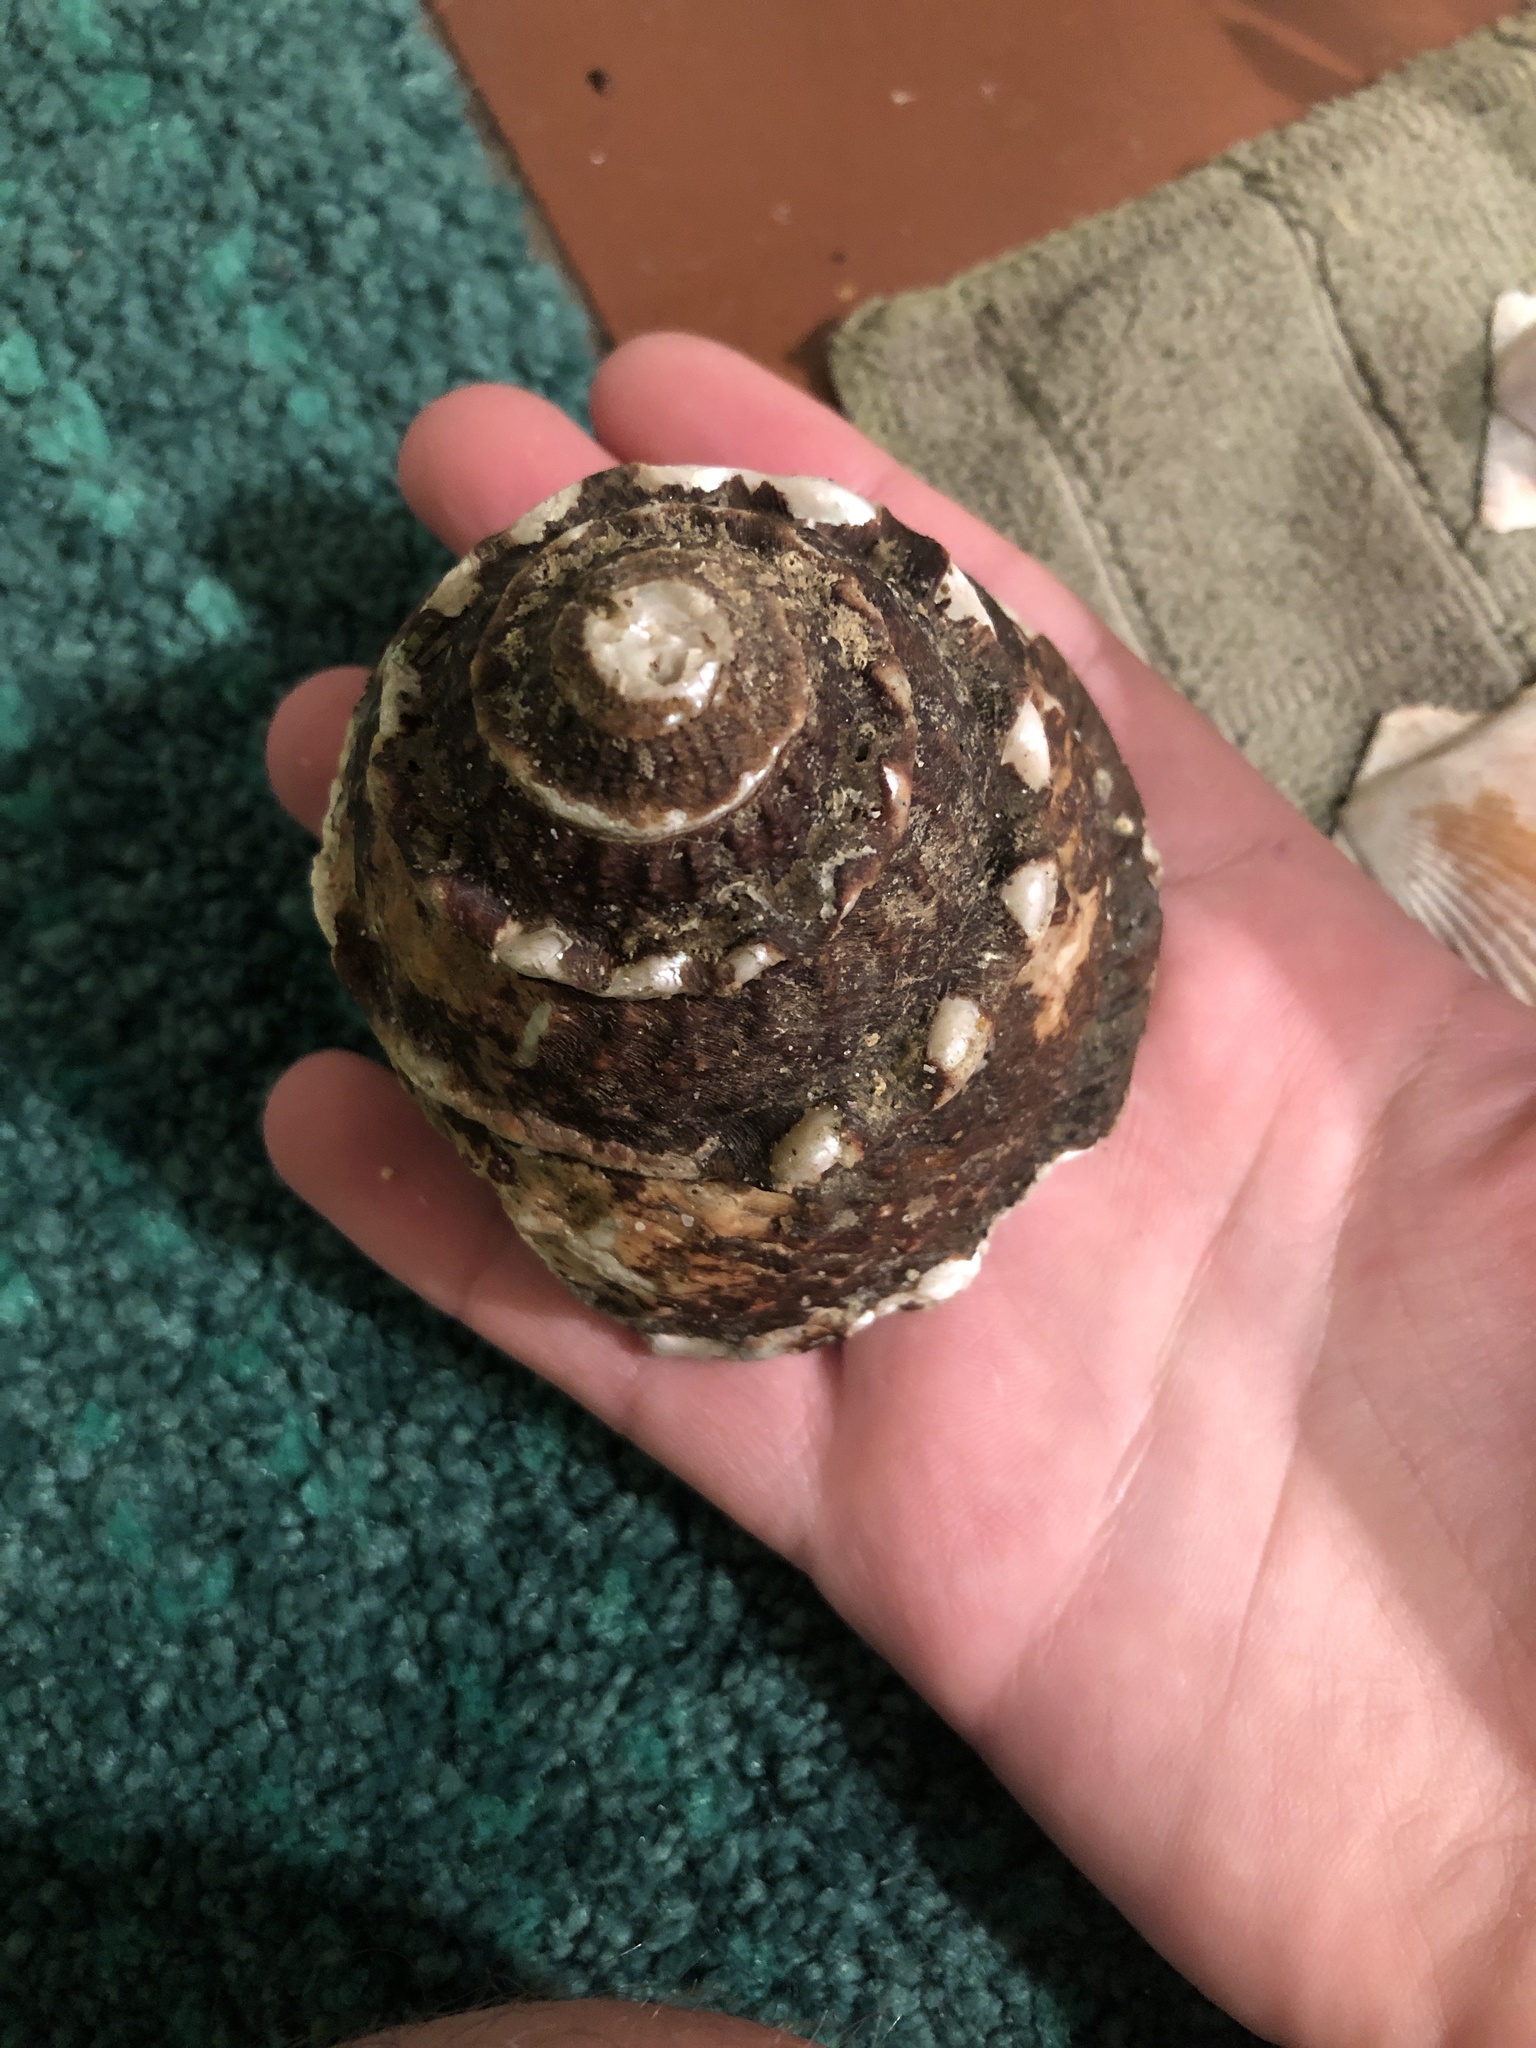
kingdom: Animalia
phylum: Mollusca
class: Gastropoda
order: Trochida
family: Turbinidae
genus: Megastraea
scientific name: Megastraea undosa
